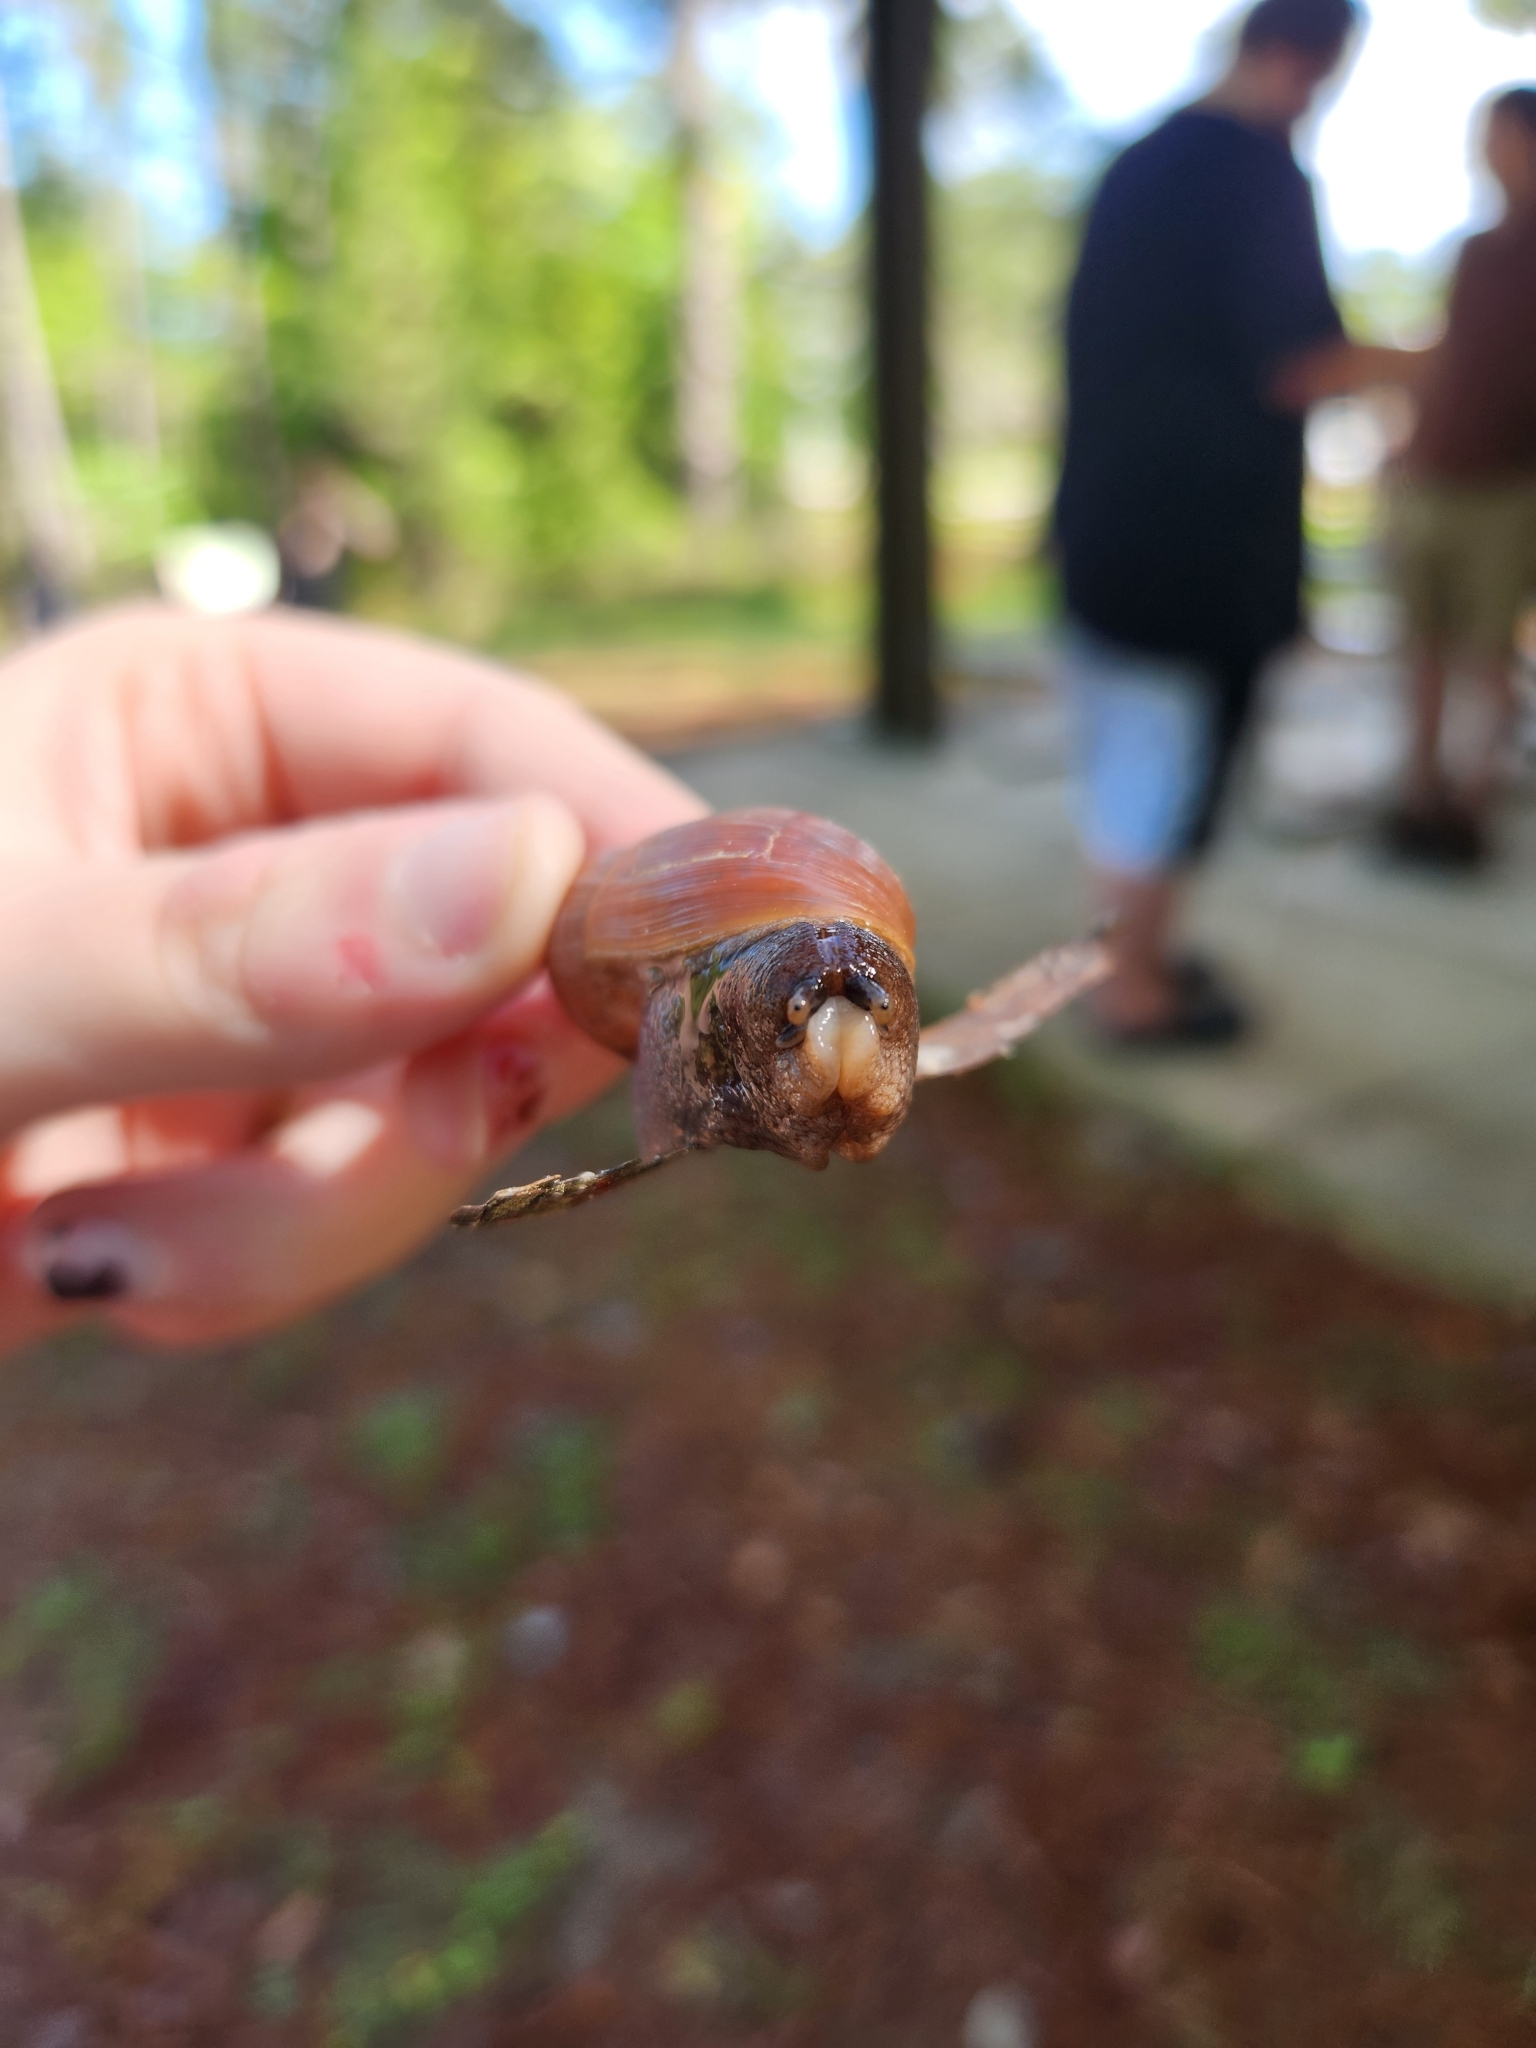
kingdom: Animalia
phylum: Mollusca
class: Gastropoda
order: Stylommatophora
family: Spiraxidae
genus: Euglandina
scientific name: Euglandina rosea
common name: Rosy wolfsnail
